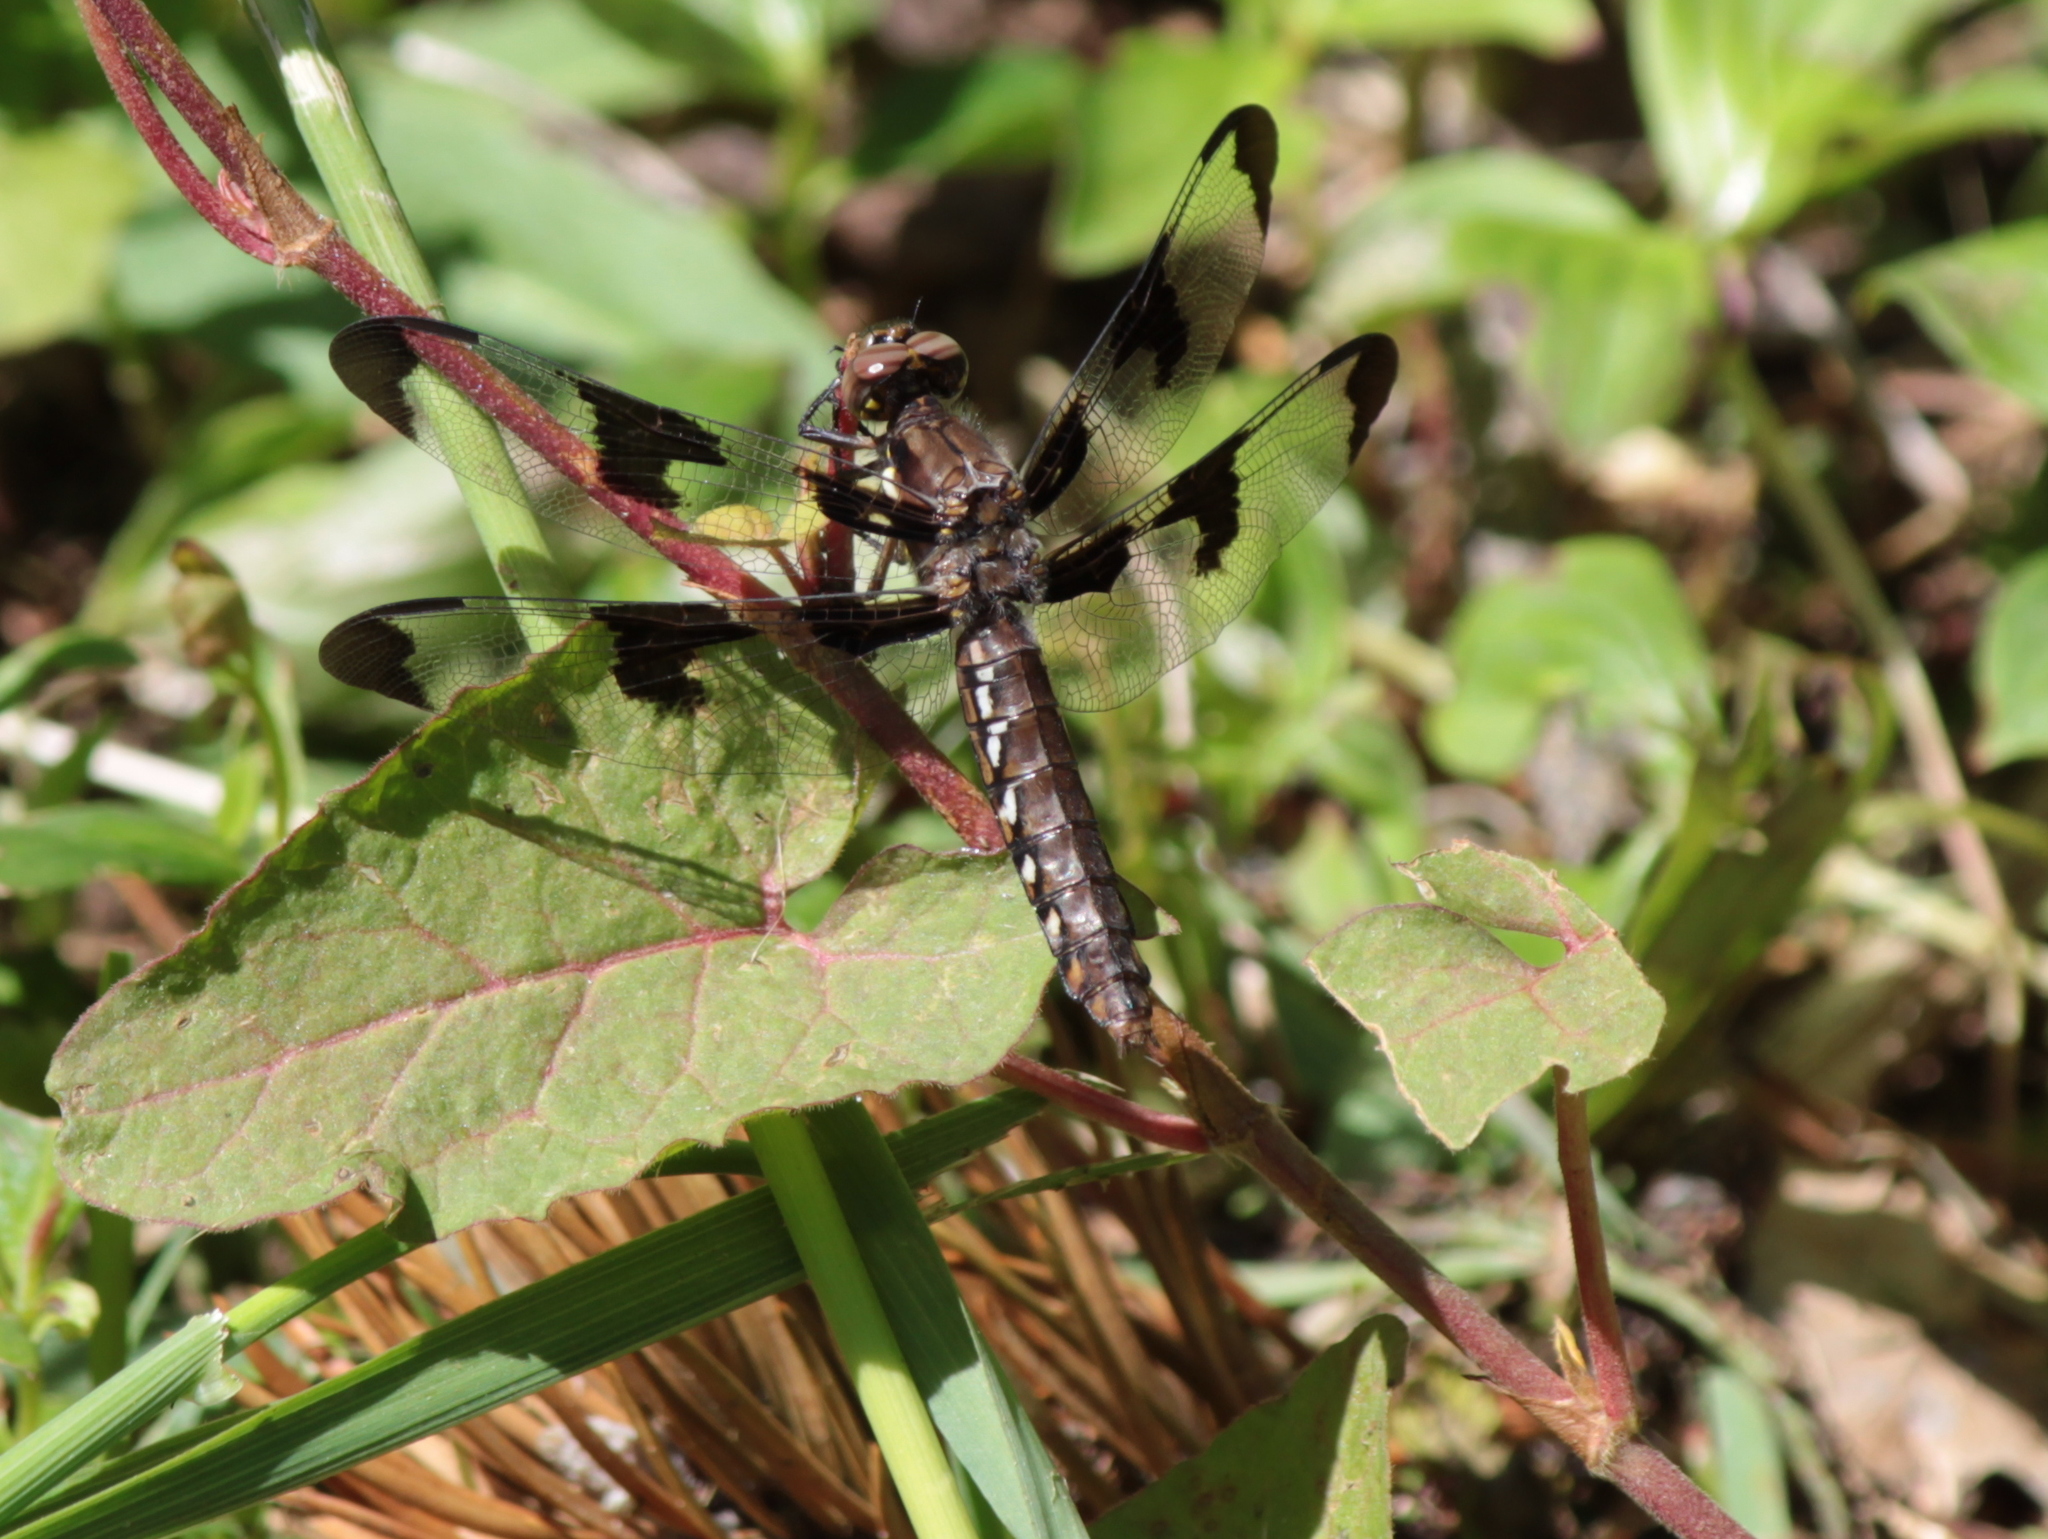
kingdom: Animalia
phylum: Arthropoda
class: Insecta
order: Odonata
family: Libellulidae
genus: Plathemis
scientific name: Plathemis lydia
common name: Common whitetail
